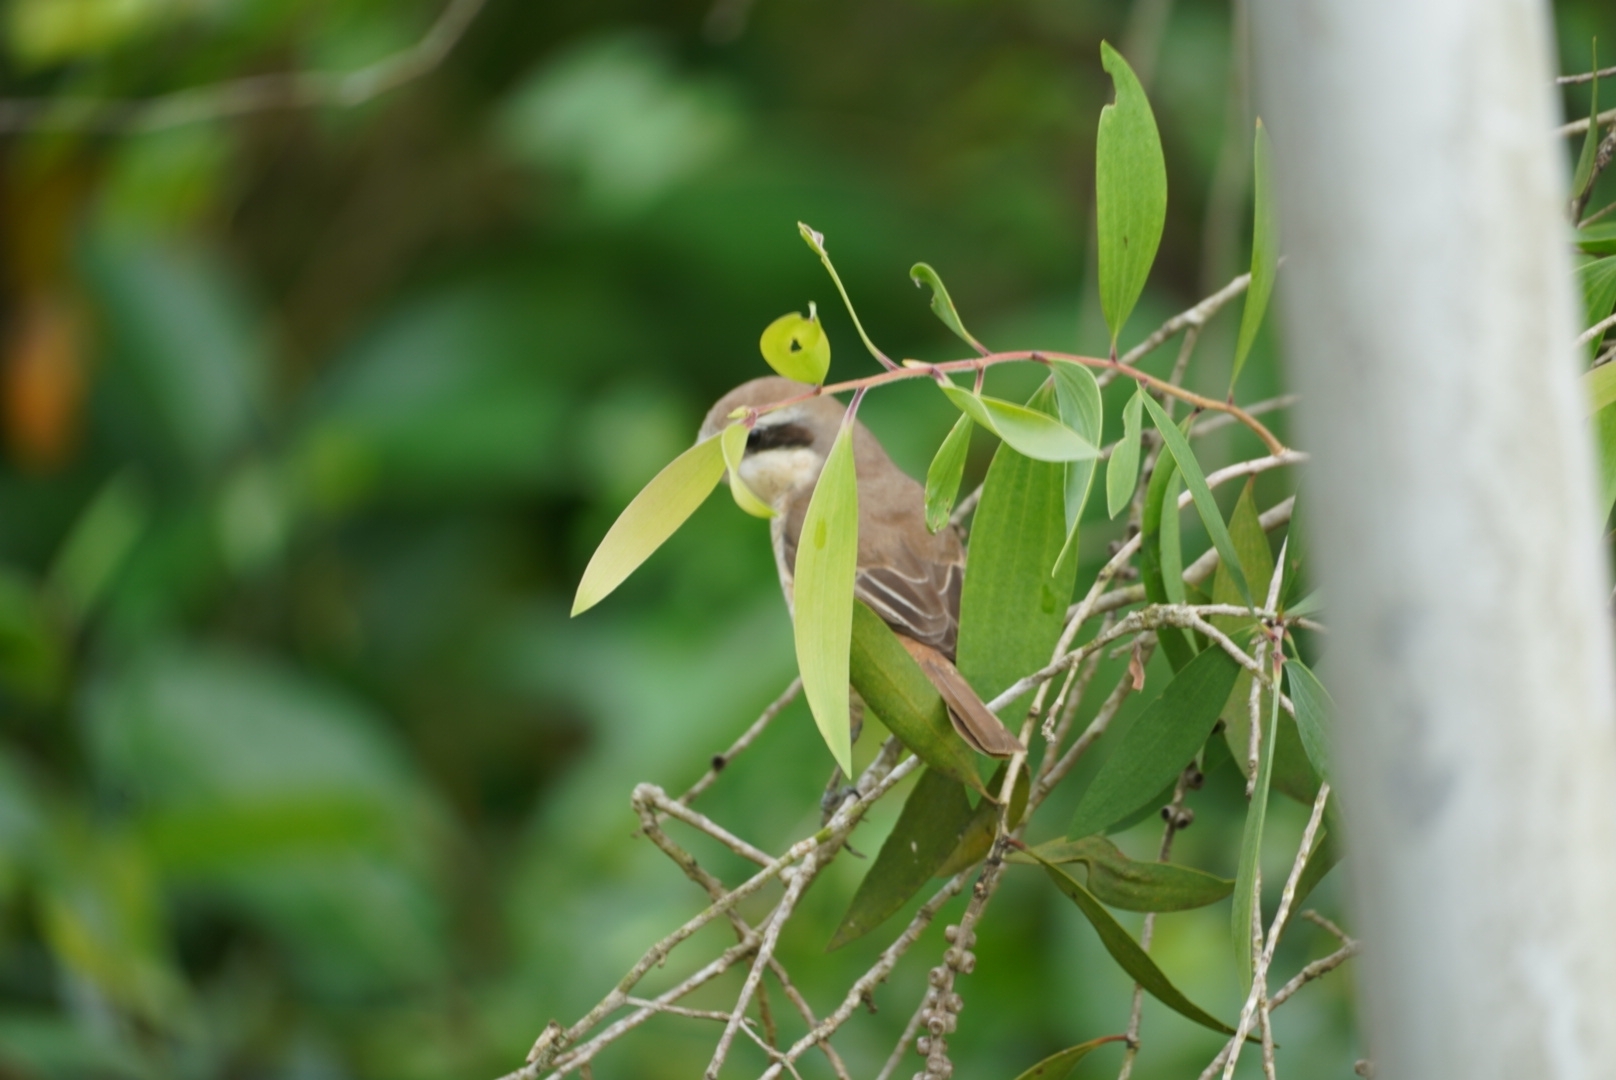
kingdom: Animalia
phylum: Chordata
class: Aves
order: Passeriformes
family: Laniidae
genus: Lanius
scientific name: Lanius cristatus
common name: Brown shrike
